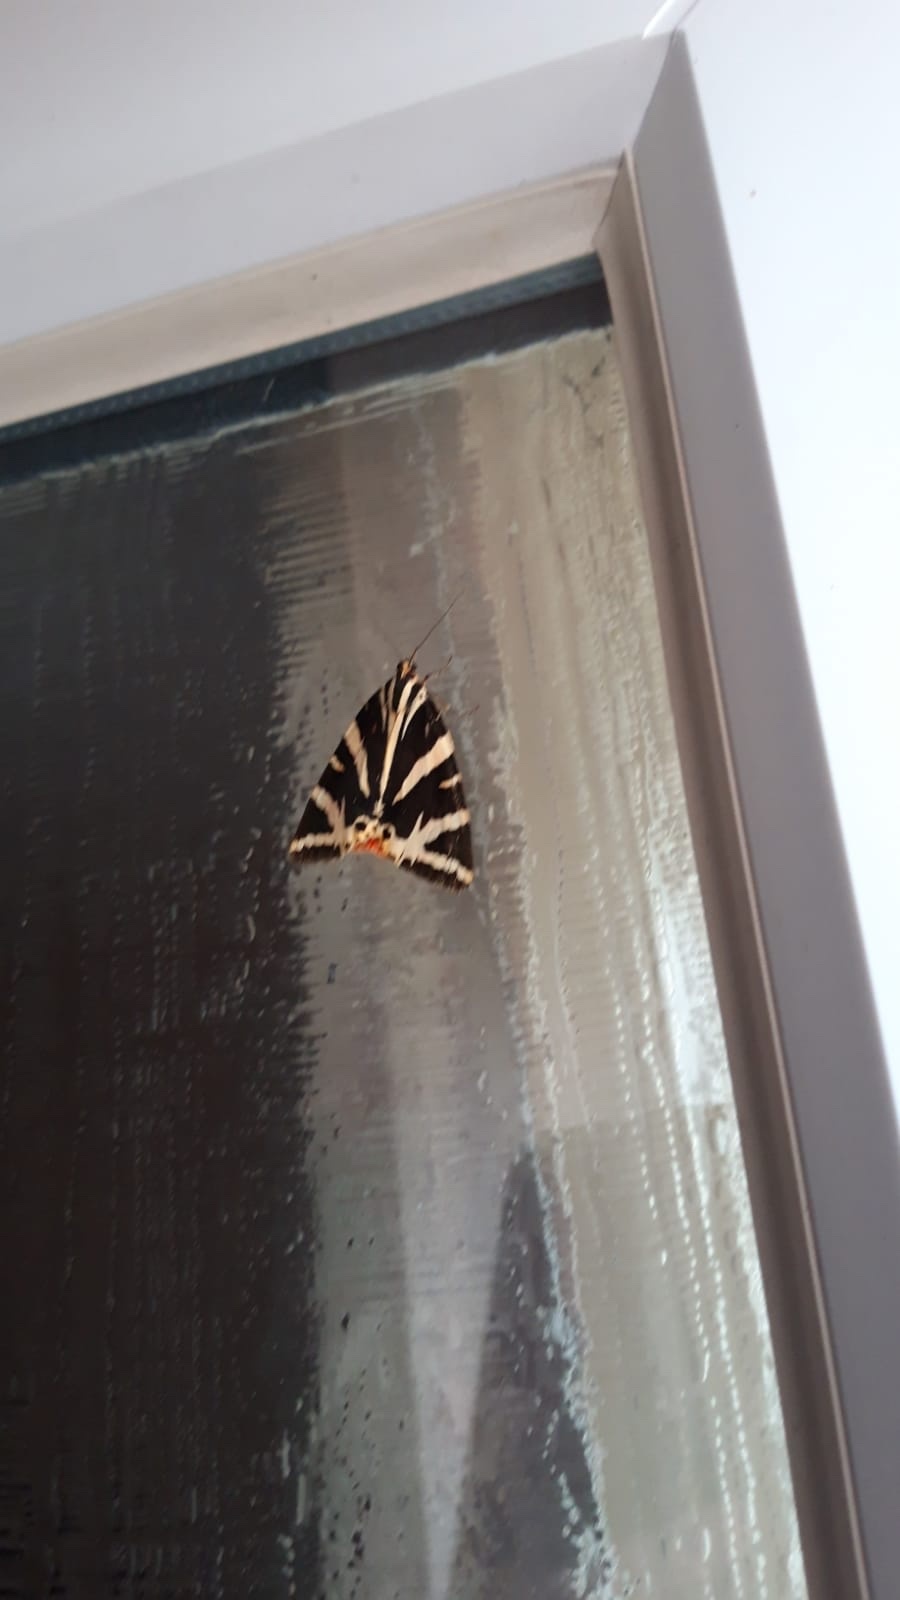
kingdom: Animalia
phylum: Arthropoda
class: Insecta
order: Lepidoptera
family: Erebidae
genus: Euplagia
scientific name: Euplagia quadripunctaria
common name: Jersey tiger
